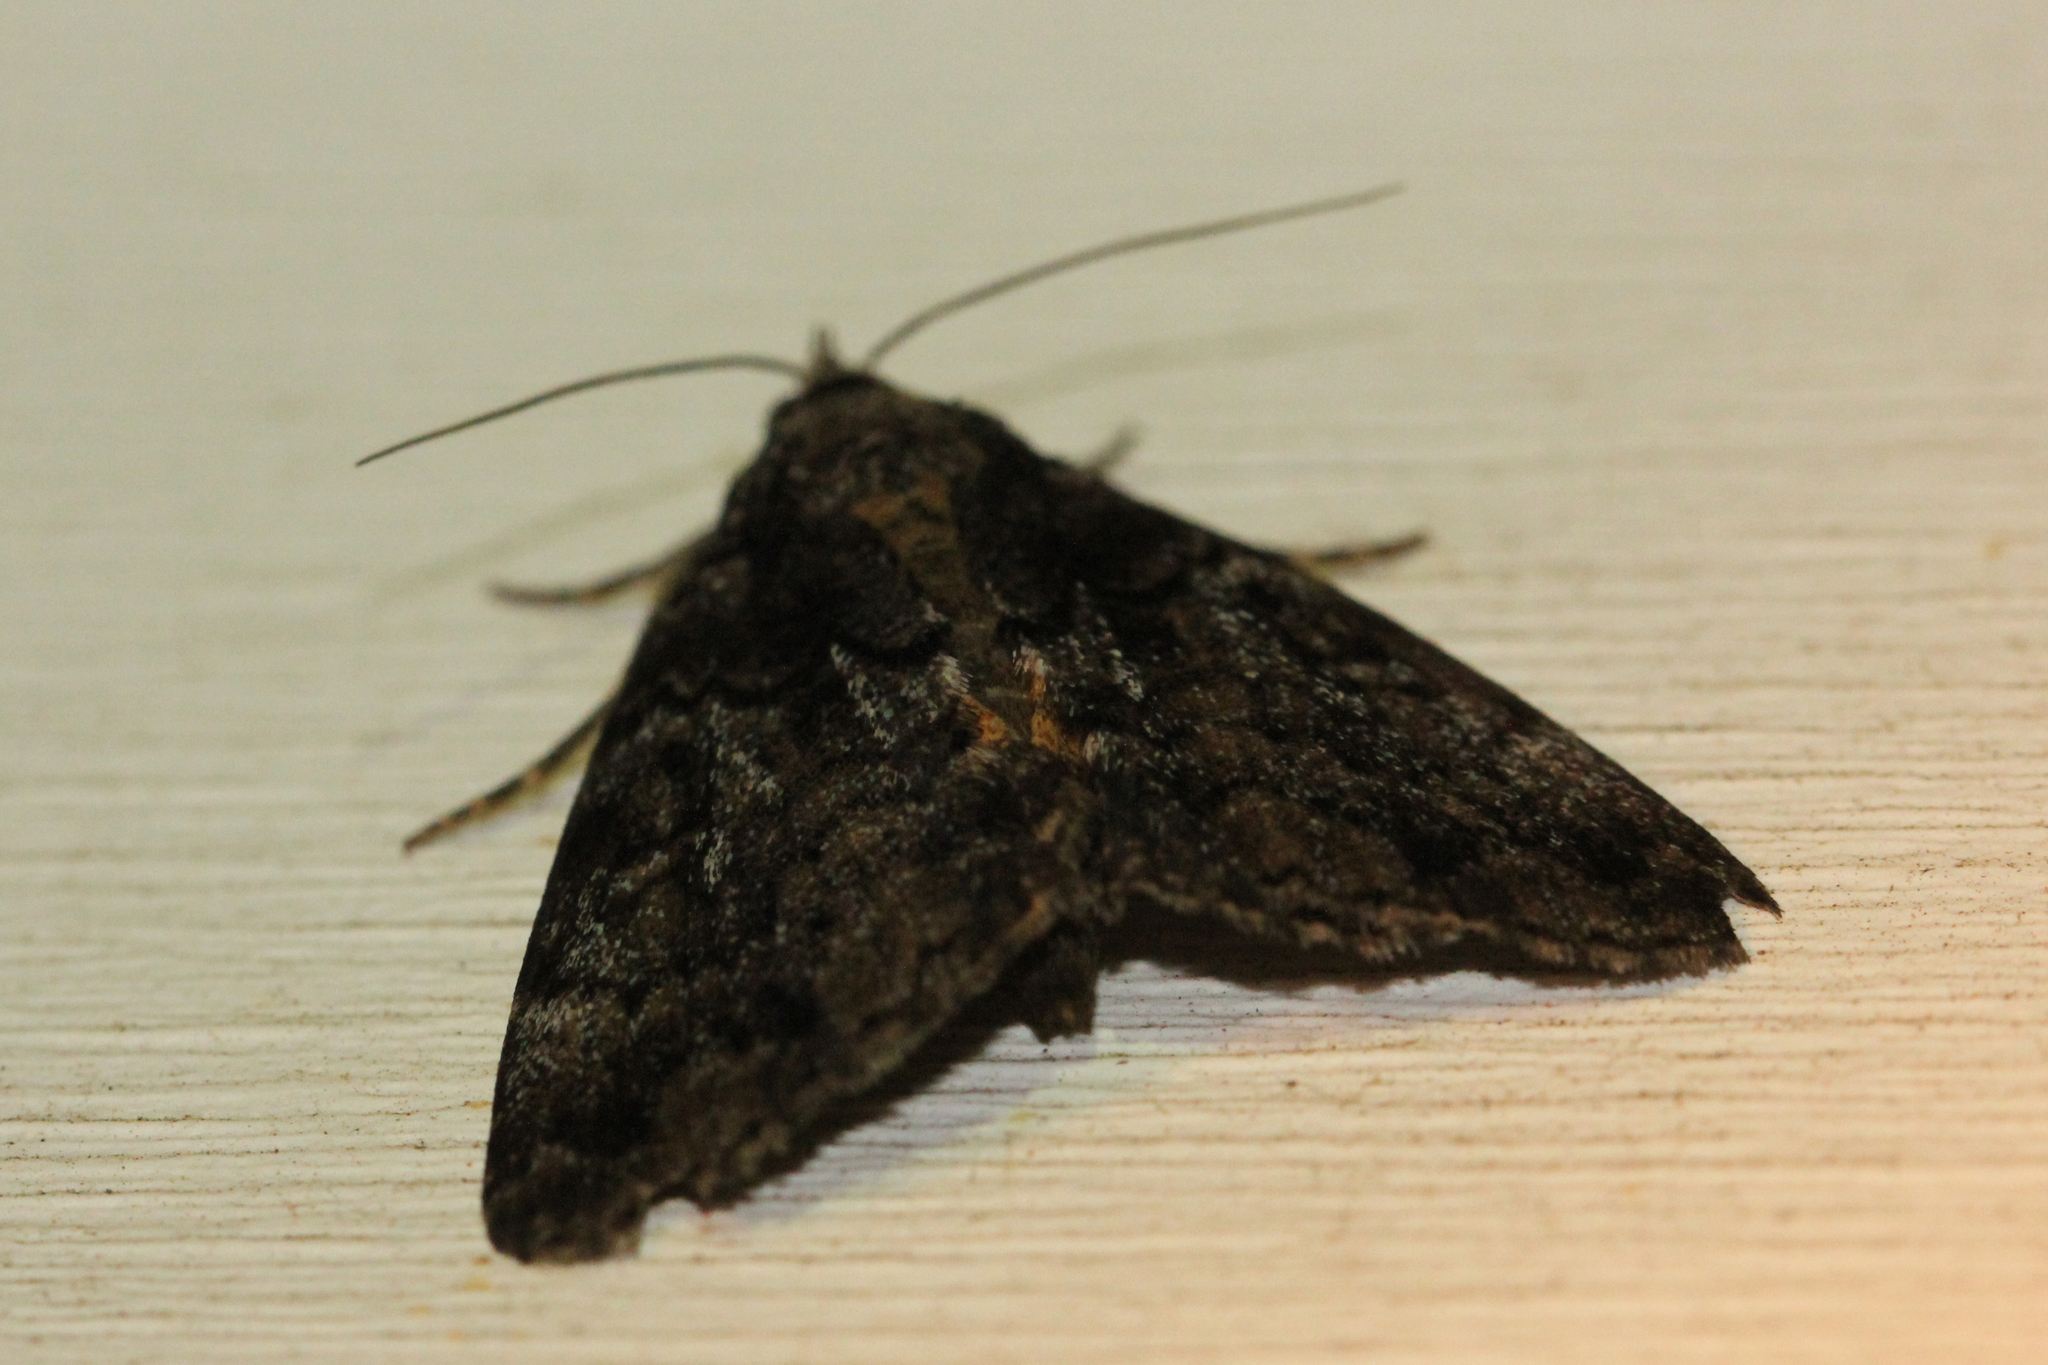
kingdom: Animalia
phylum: Arthropoda
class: Insecta
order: Lepidoptera
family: Erebidae
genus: Allotria
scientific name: Allotria elonympha
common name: False underwing
